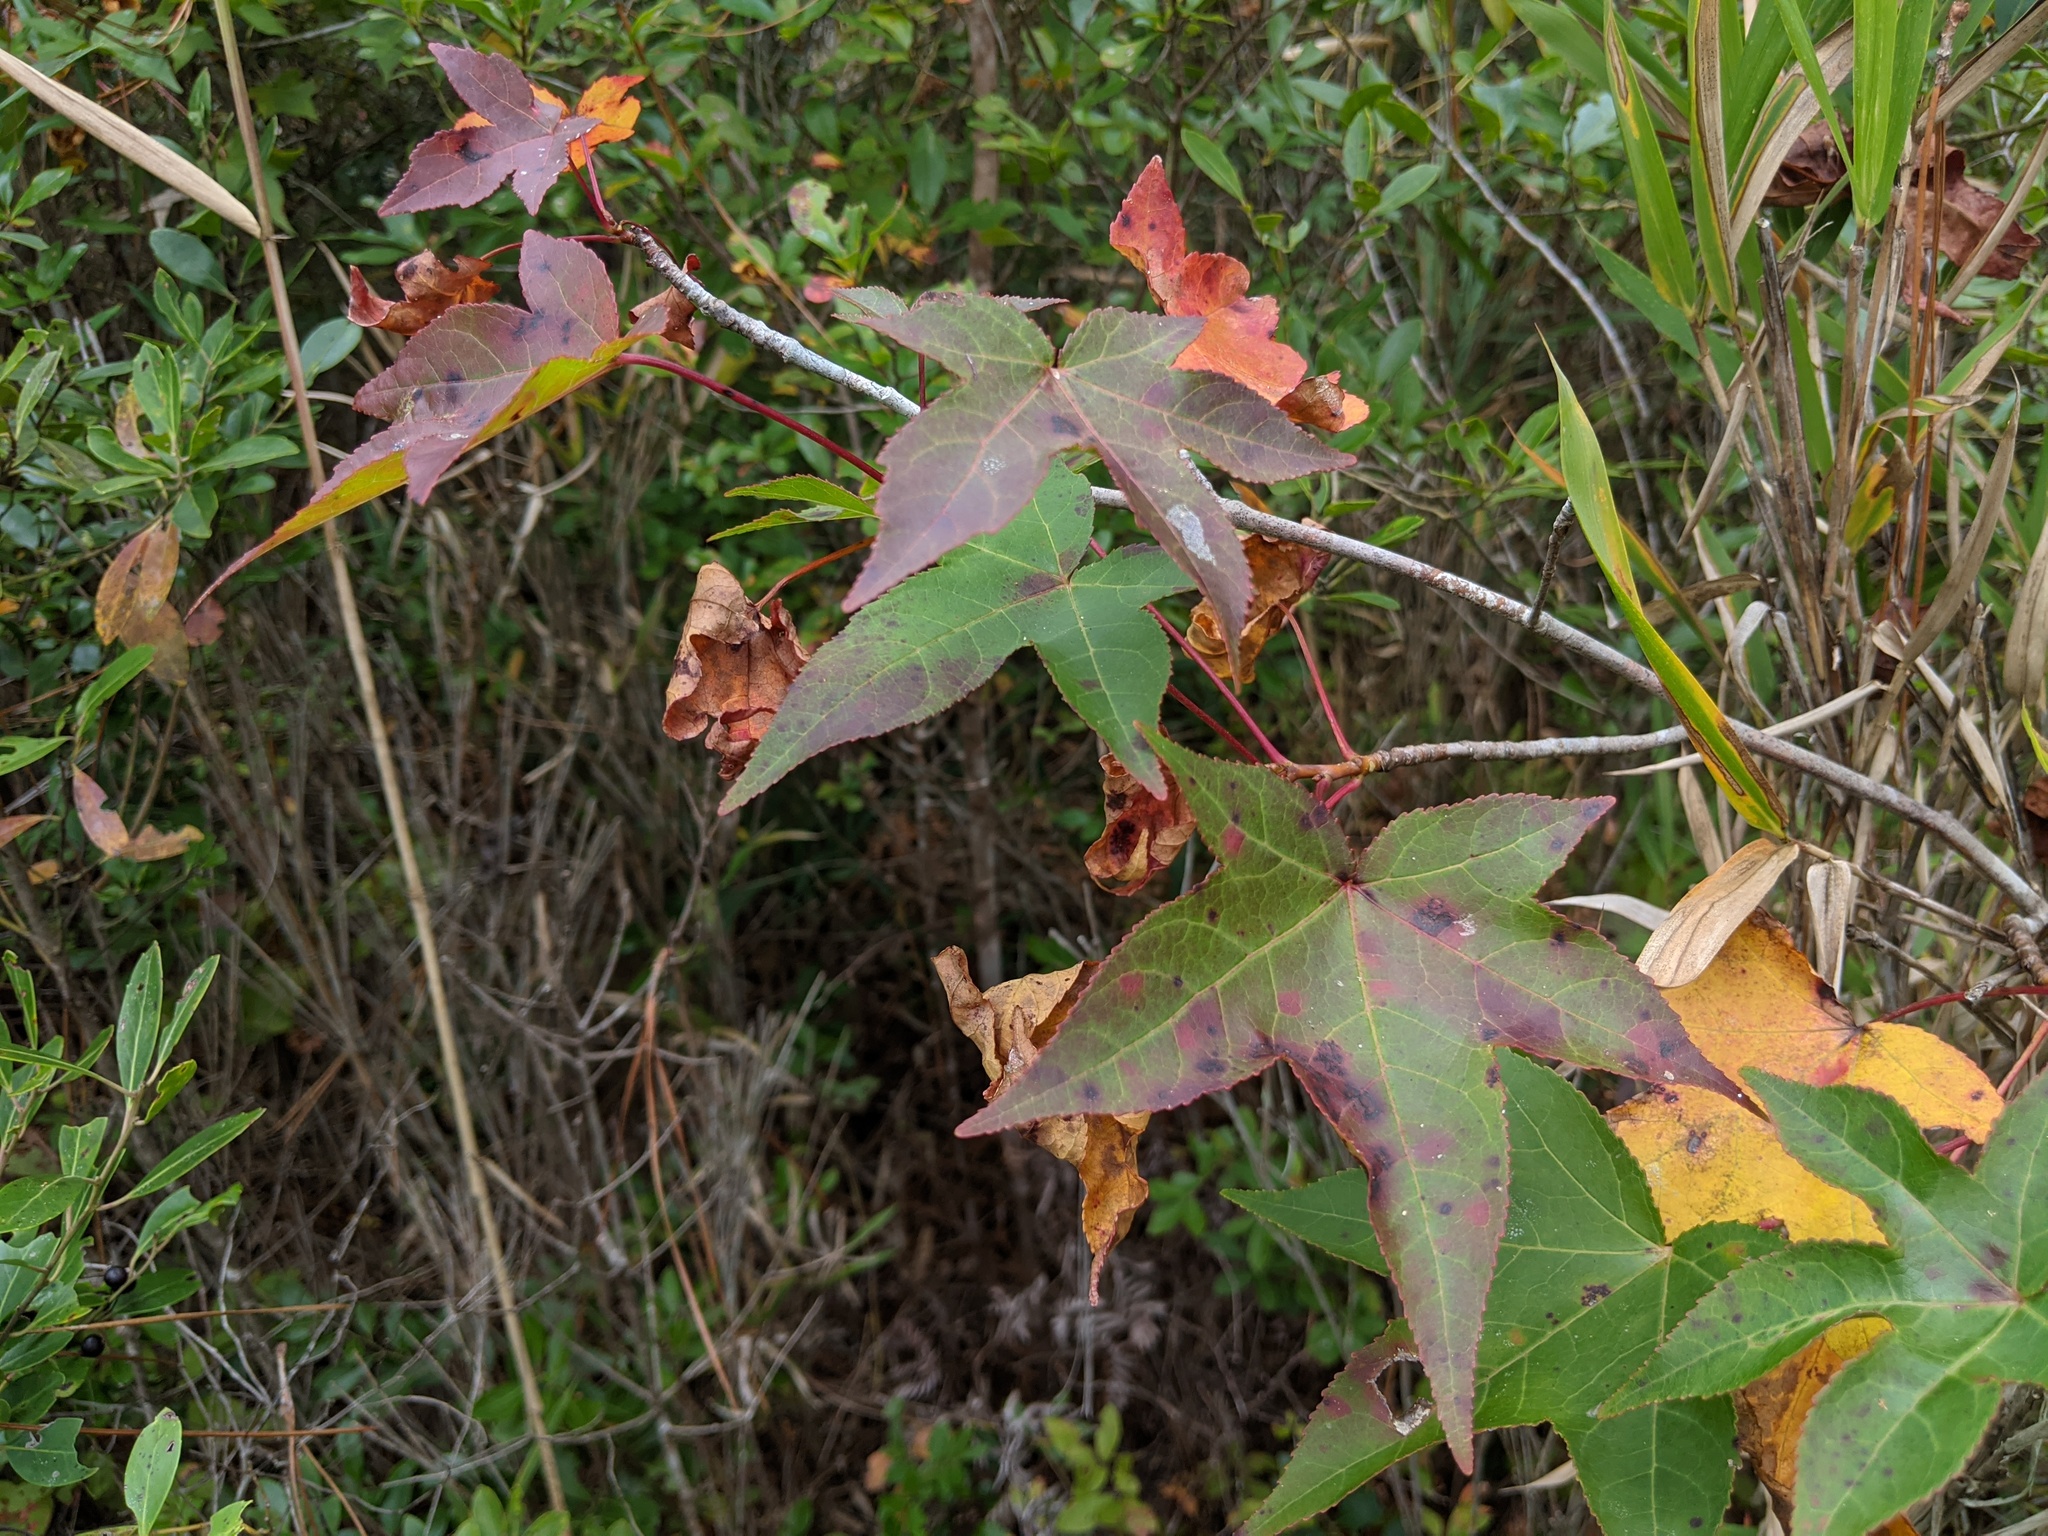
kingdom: Plantae
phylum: Tracheophyta
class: Magnoliopsida
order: Saxifragales
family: Altingiaceae
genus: Liquidambar
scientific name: Liquidambar styraciflua
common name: Sweet gum
